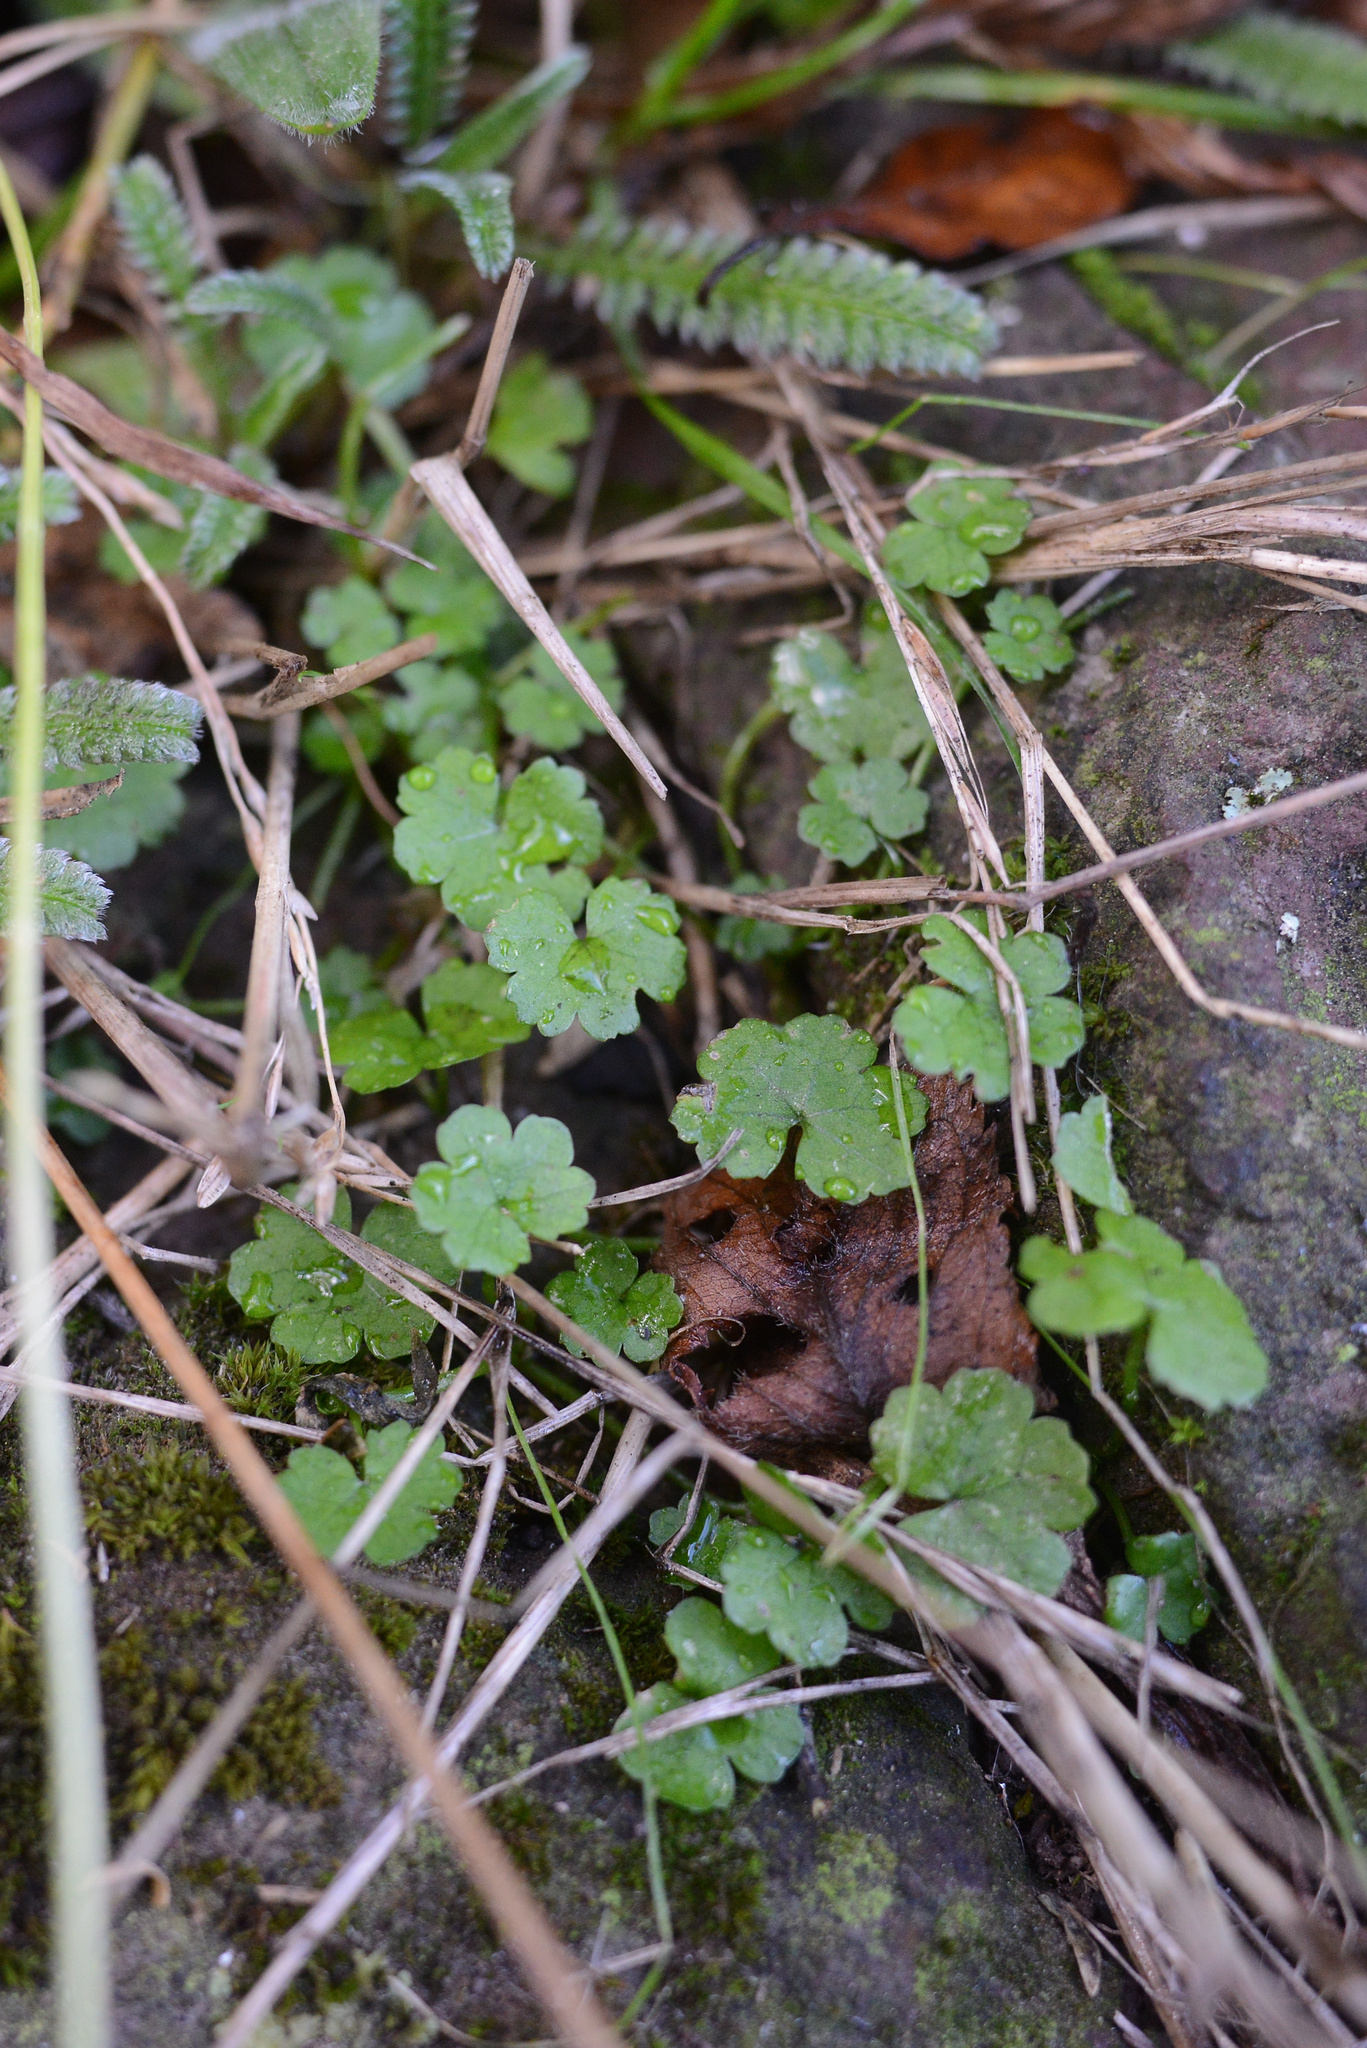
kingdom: Plantae
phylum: Tracheophyta
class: Magnoliopsida
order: Apiales
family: Araliaceae
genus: Hydrocotyle
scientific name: Hydrocotyle heteromeria
